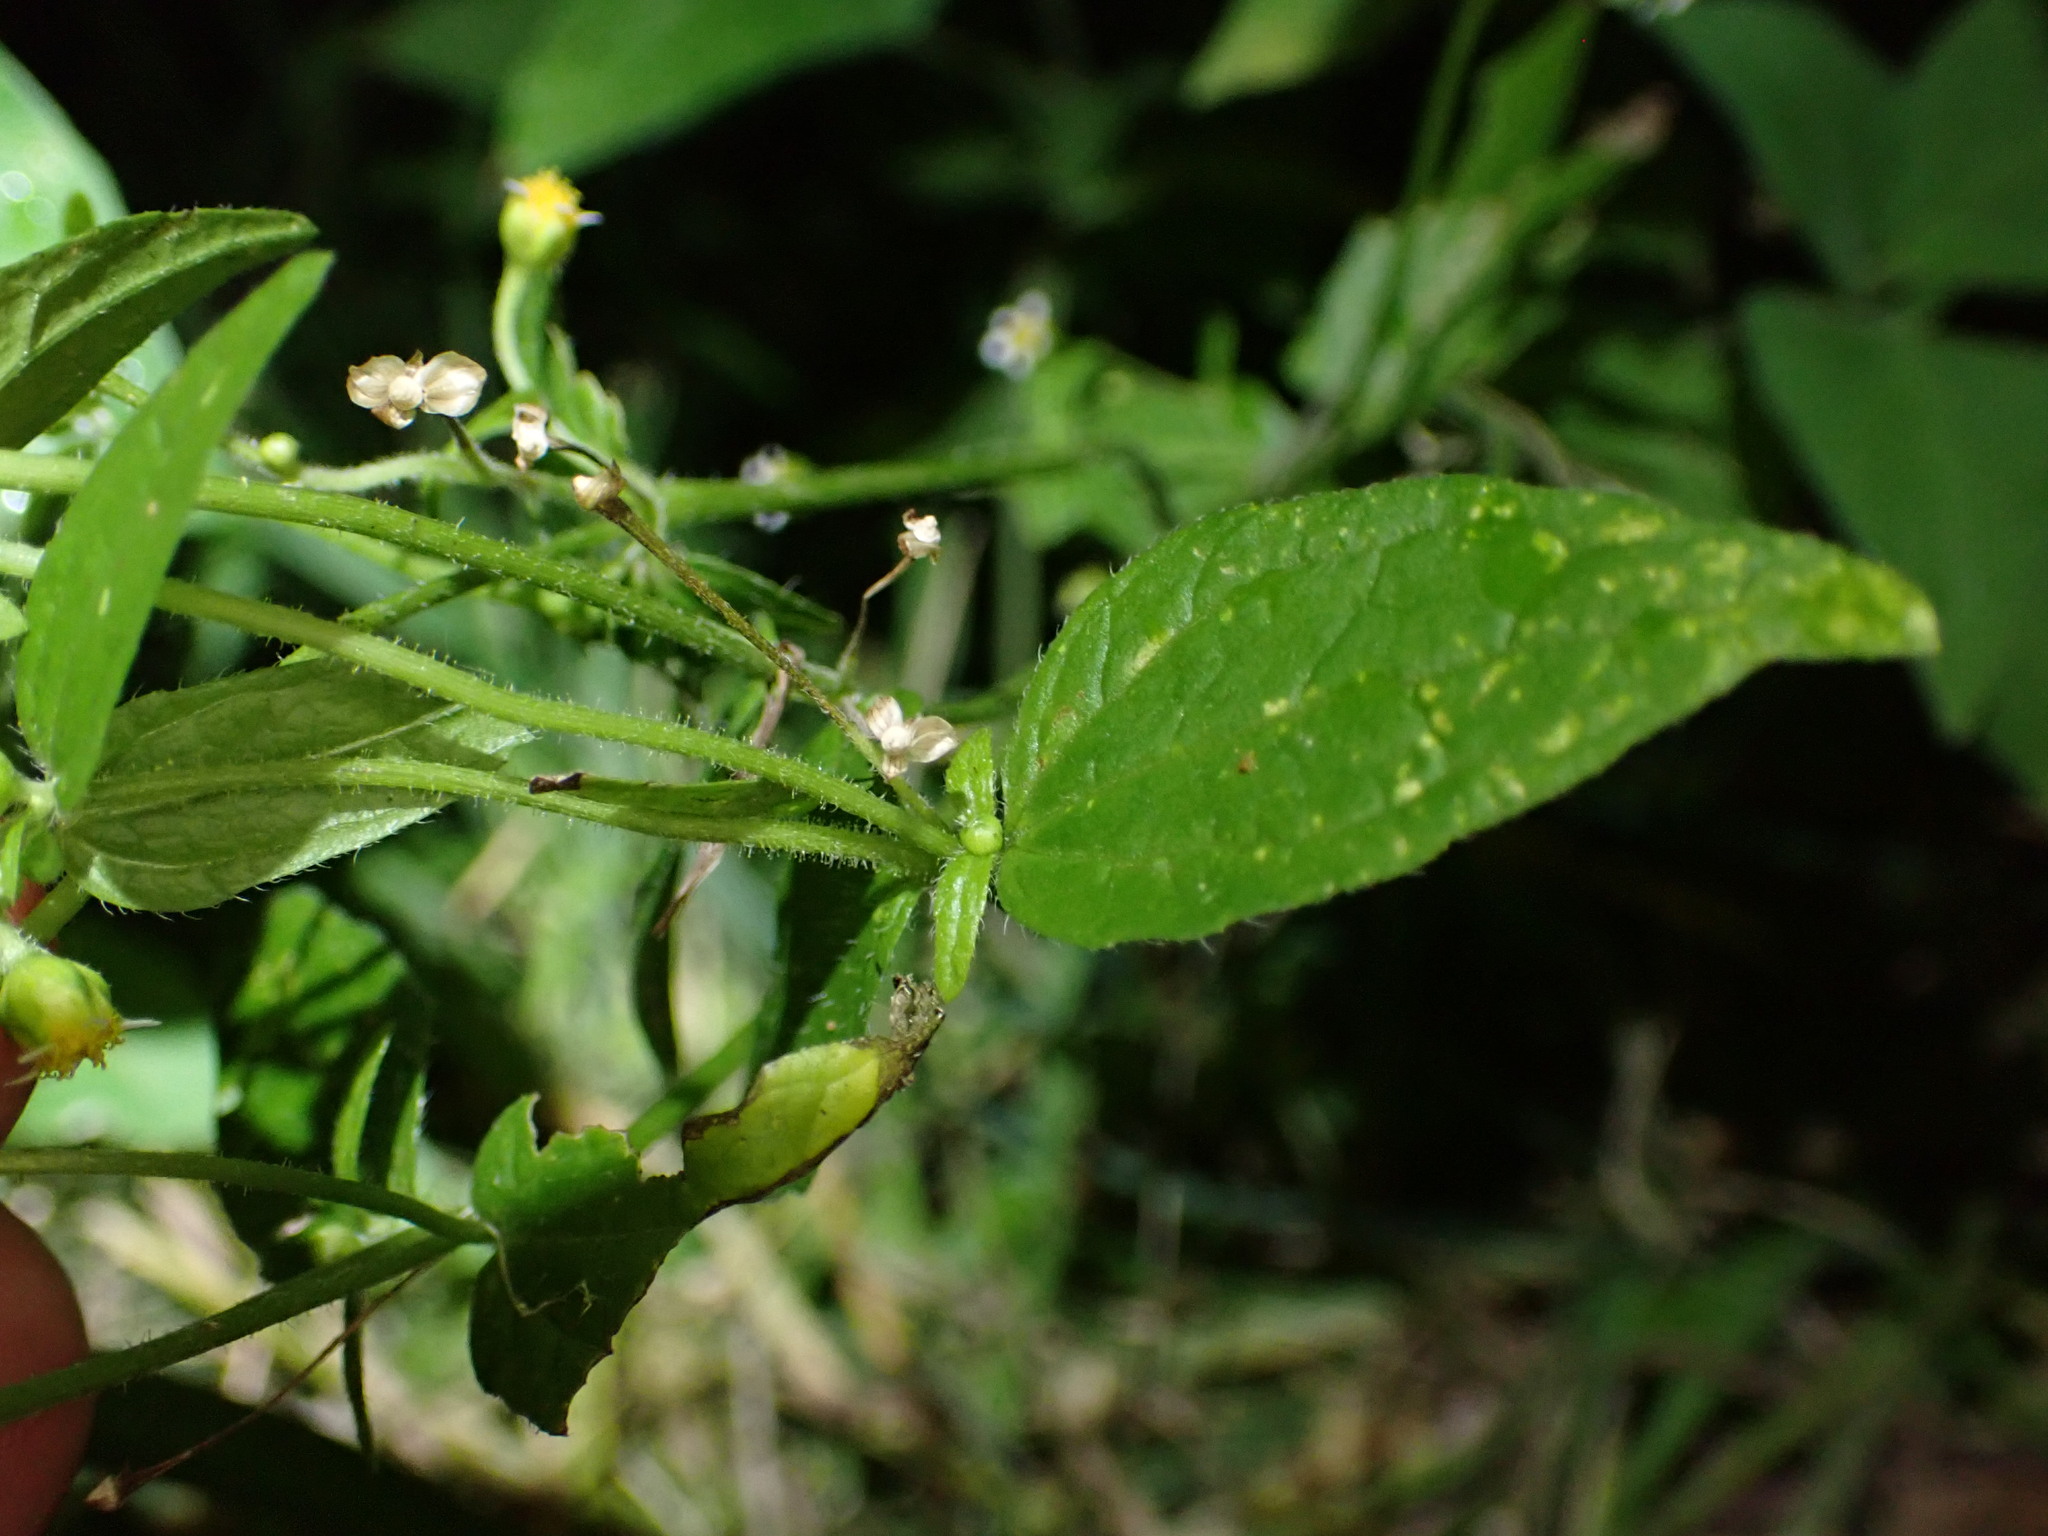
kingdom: Plantae
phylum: Tracheophyta
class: Magnoliopsida
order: Asterales
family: Asteraceae
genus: Galinsoga
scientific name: Galinsoga parviflora
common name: Gallant soldier
